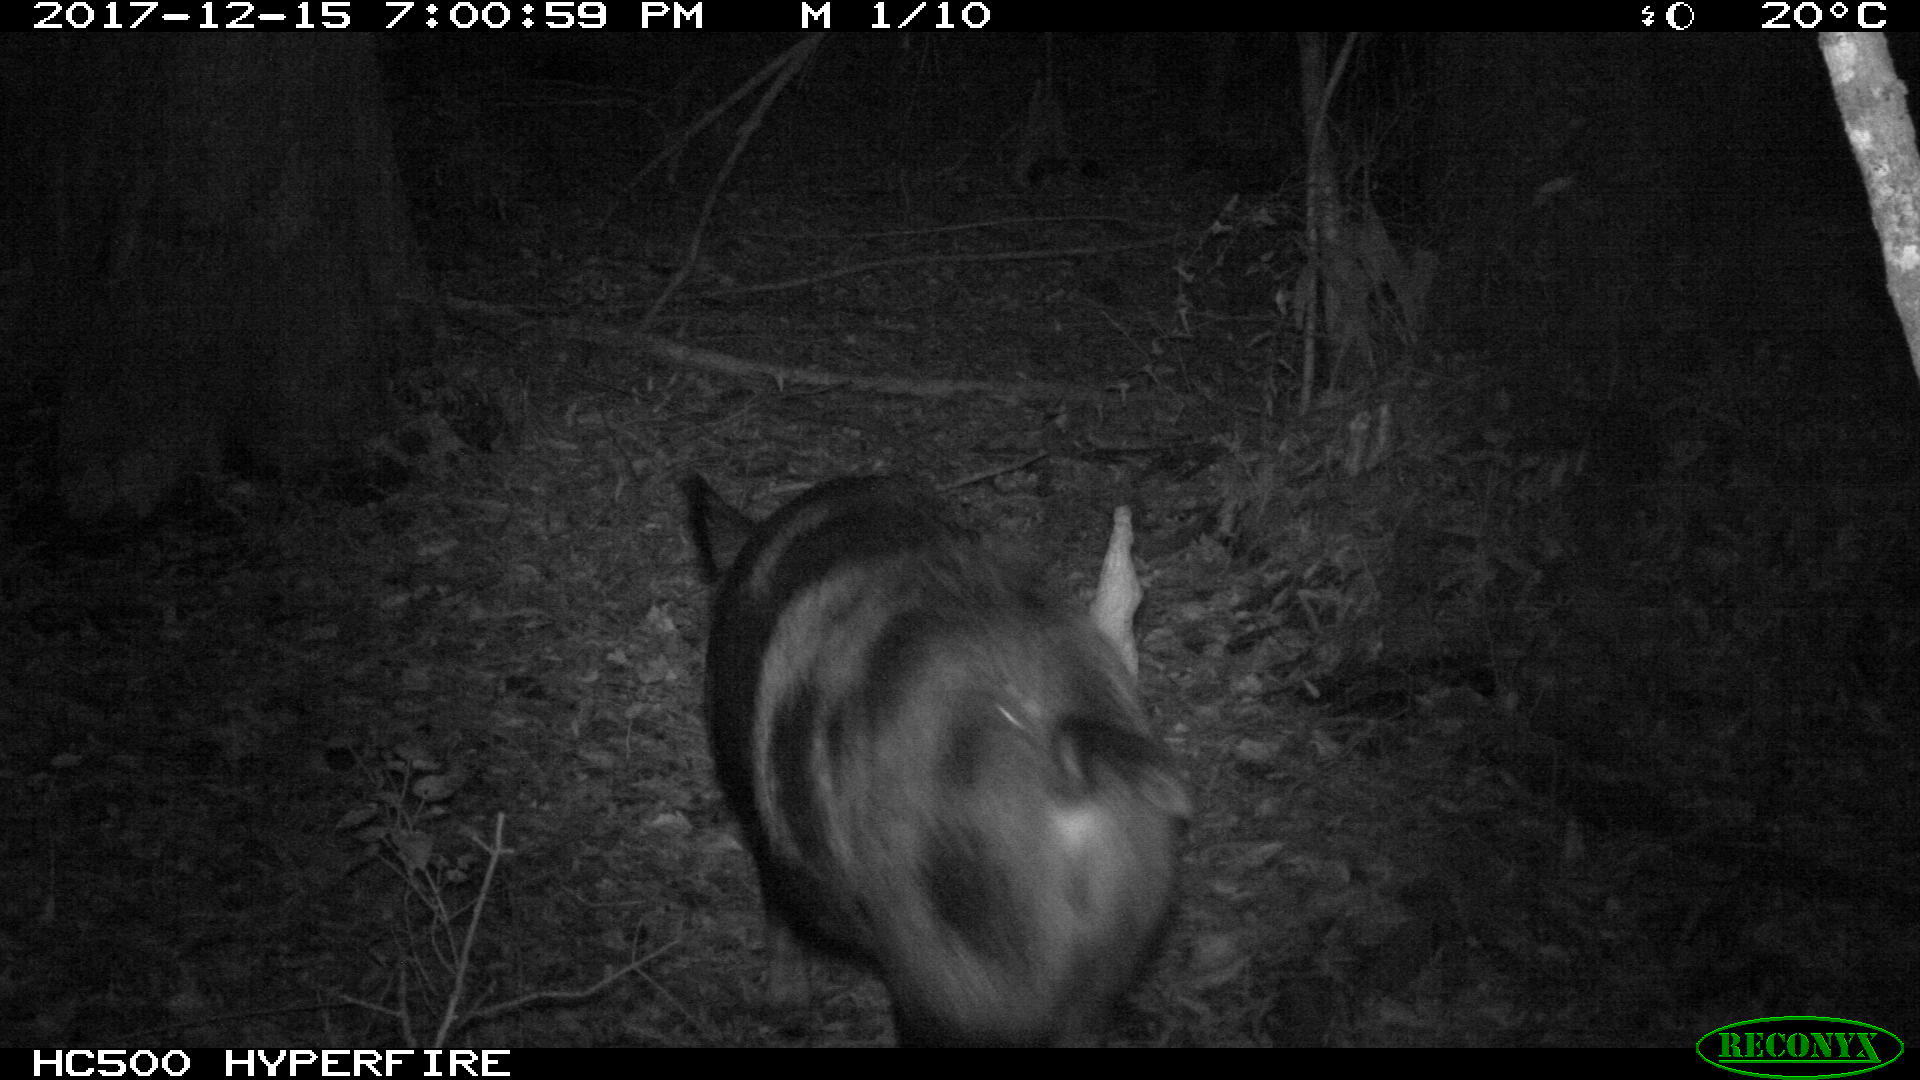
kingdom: Animalia
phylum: Chordata
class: Mammalia
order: Artiodactyla
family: Suidae
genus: Sus
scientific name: Sus scrofa
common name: Wild boar
